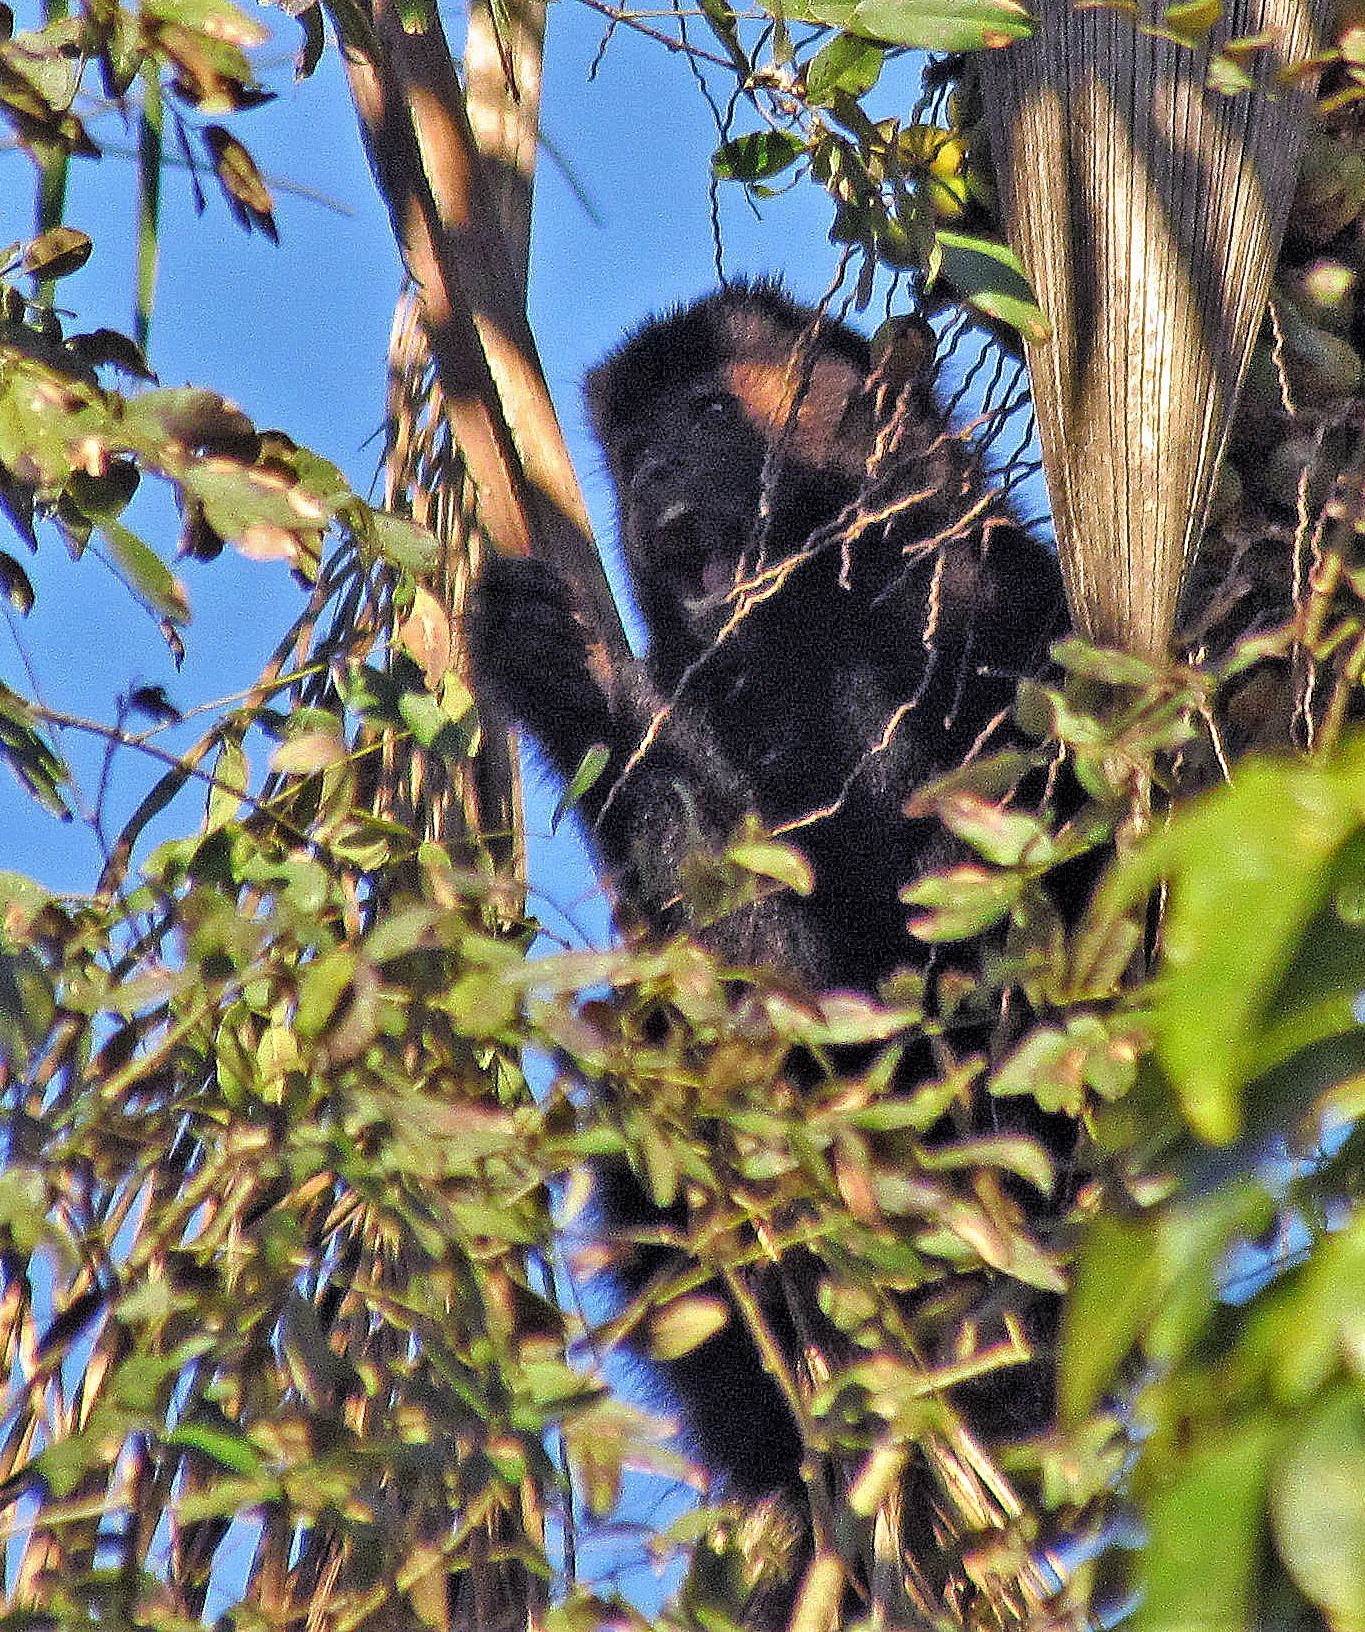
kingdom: Animalia
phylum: Chordata
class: Mammalia
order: Primates
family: Cebidae
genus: Sapajus
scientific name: Sapajus nigritus
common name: Black capuchin
